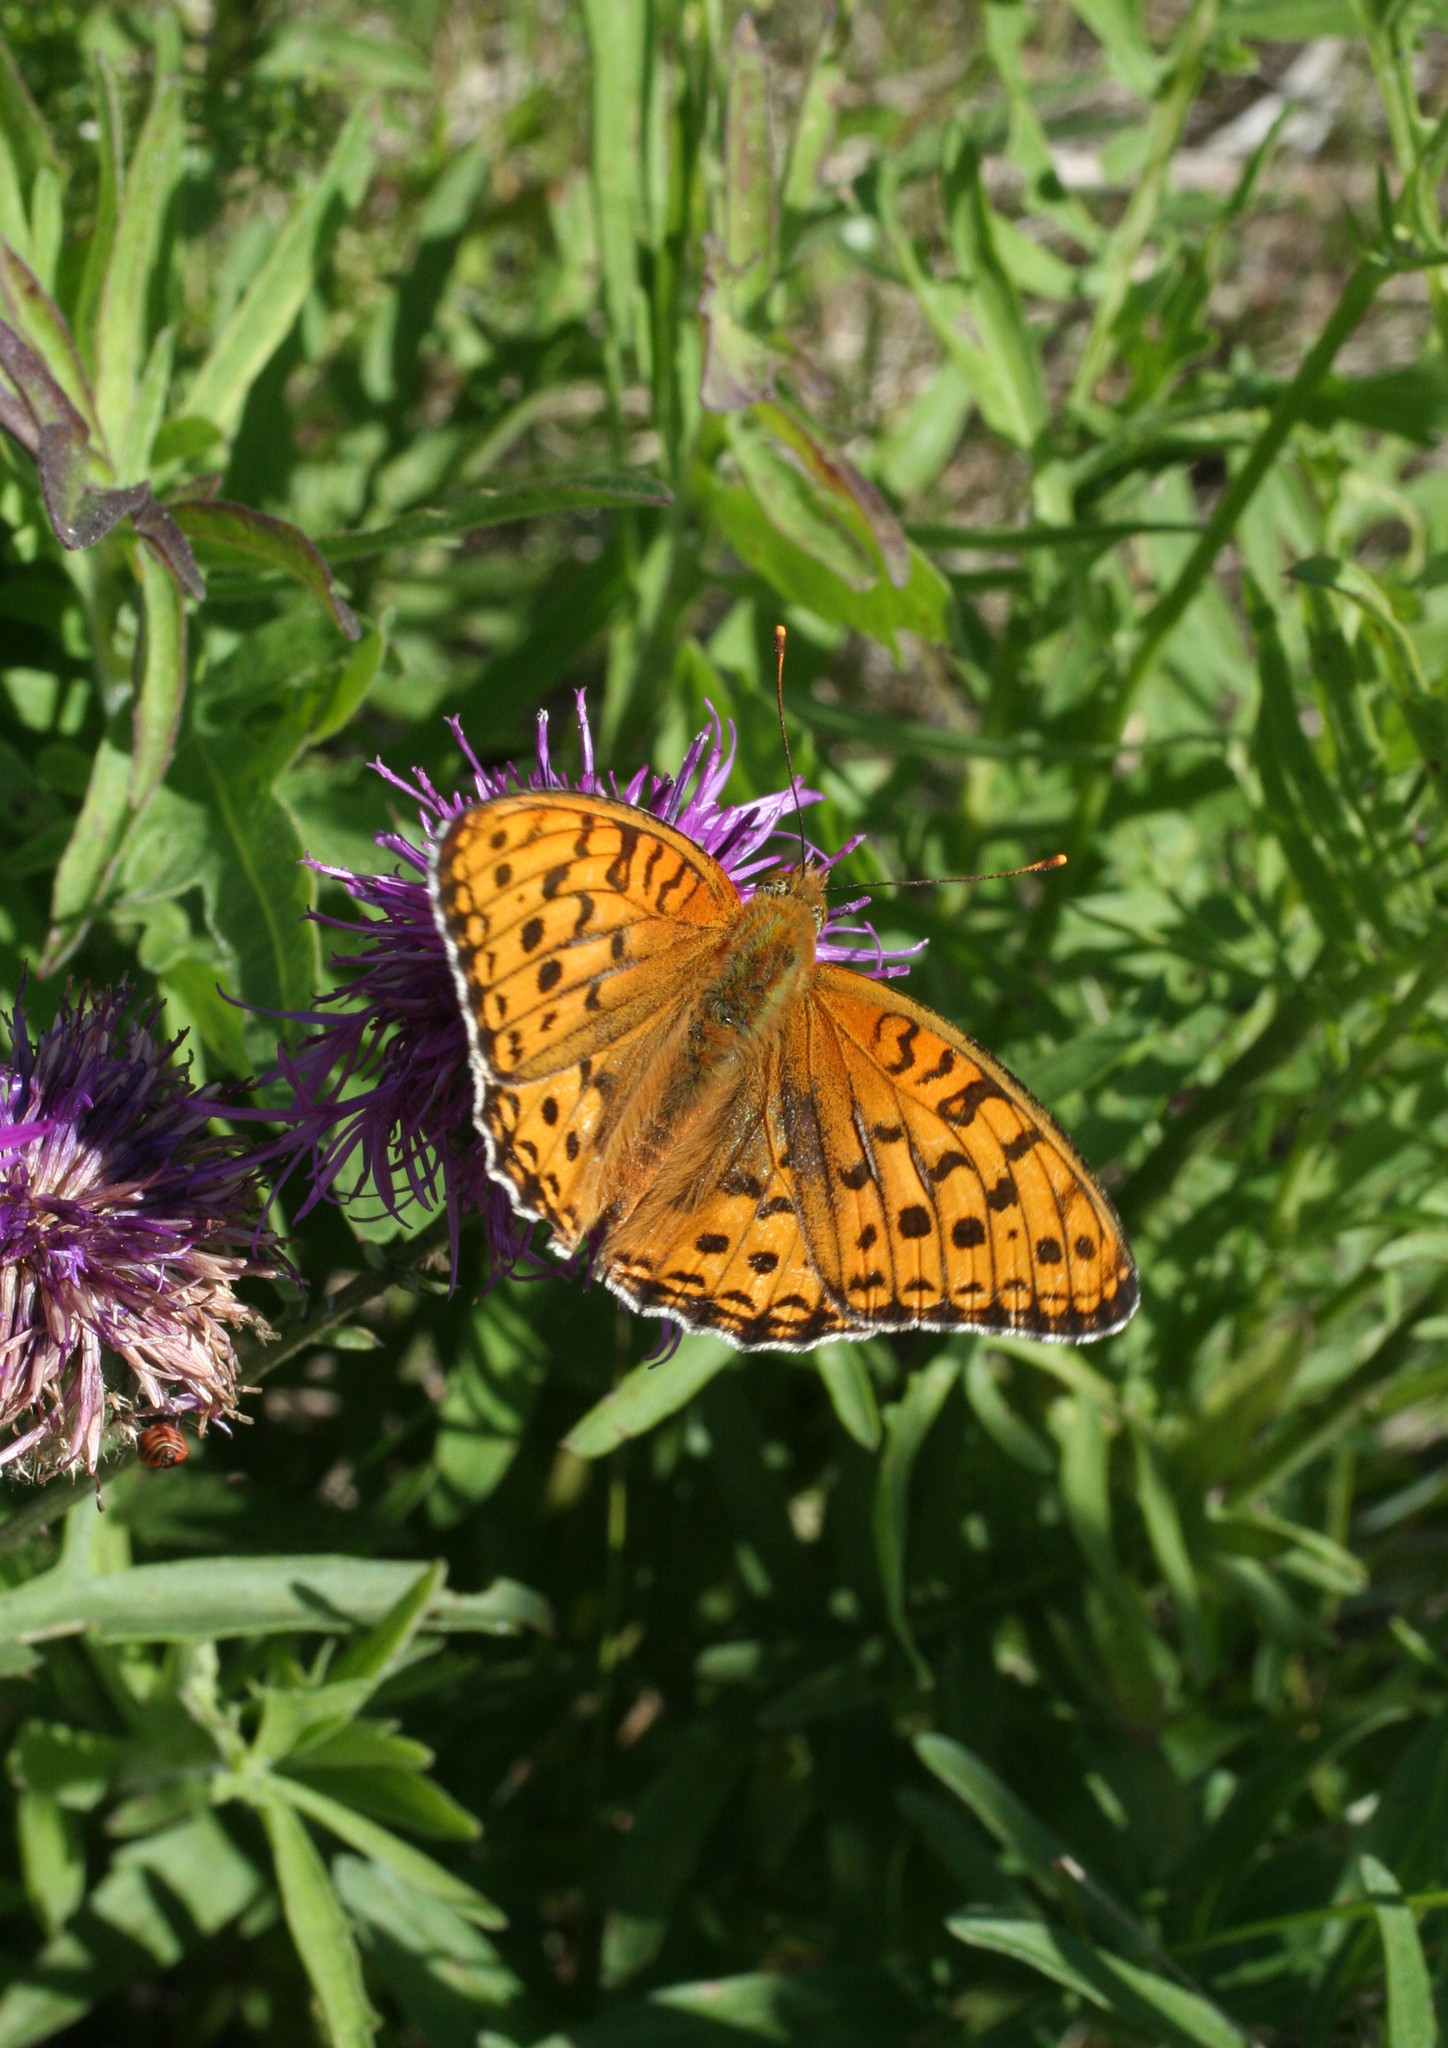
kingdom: Animalia
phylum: Arthropoda
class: Insecta
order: Lepidoptera
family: Nymphalidae
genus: Fabriciana
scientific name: Fabriciana adippe
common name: High brown fritillary
